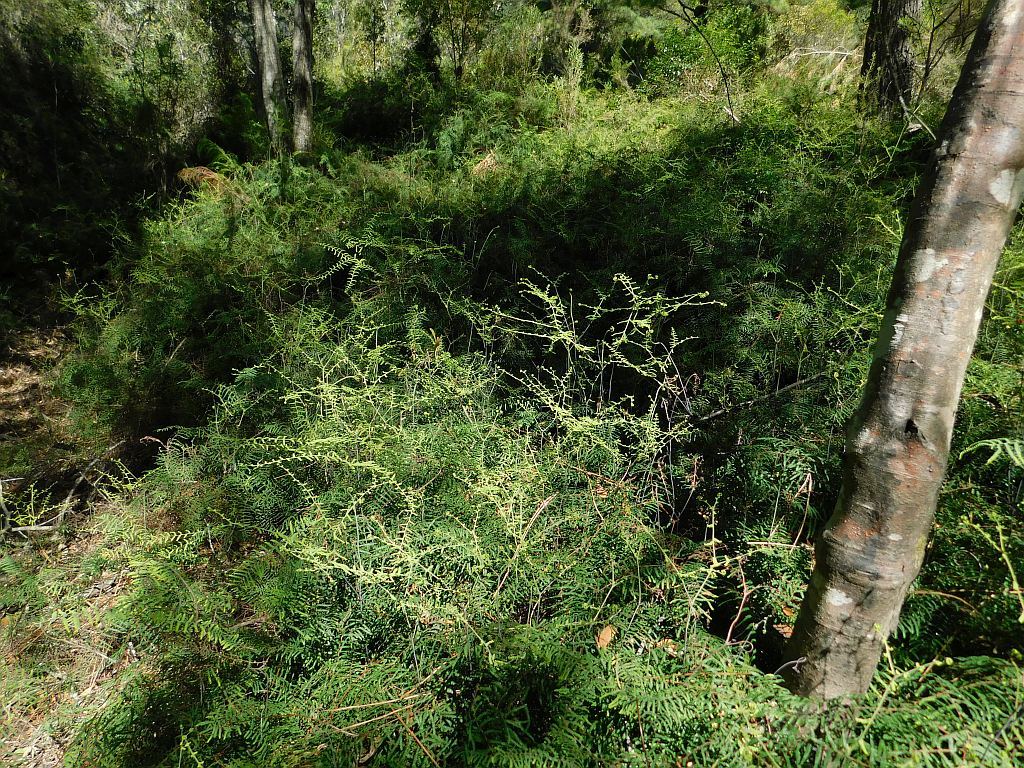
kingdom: Plantae
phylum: Tracheophyta
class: Polypodiopsida
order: Gleicheniales
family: Gleicheniaceae
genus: Gleichenia
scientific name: Gleichenia polypodioides
